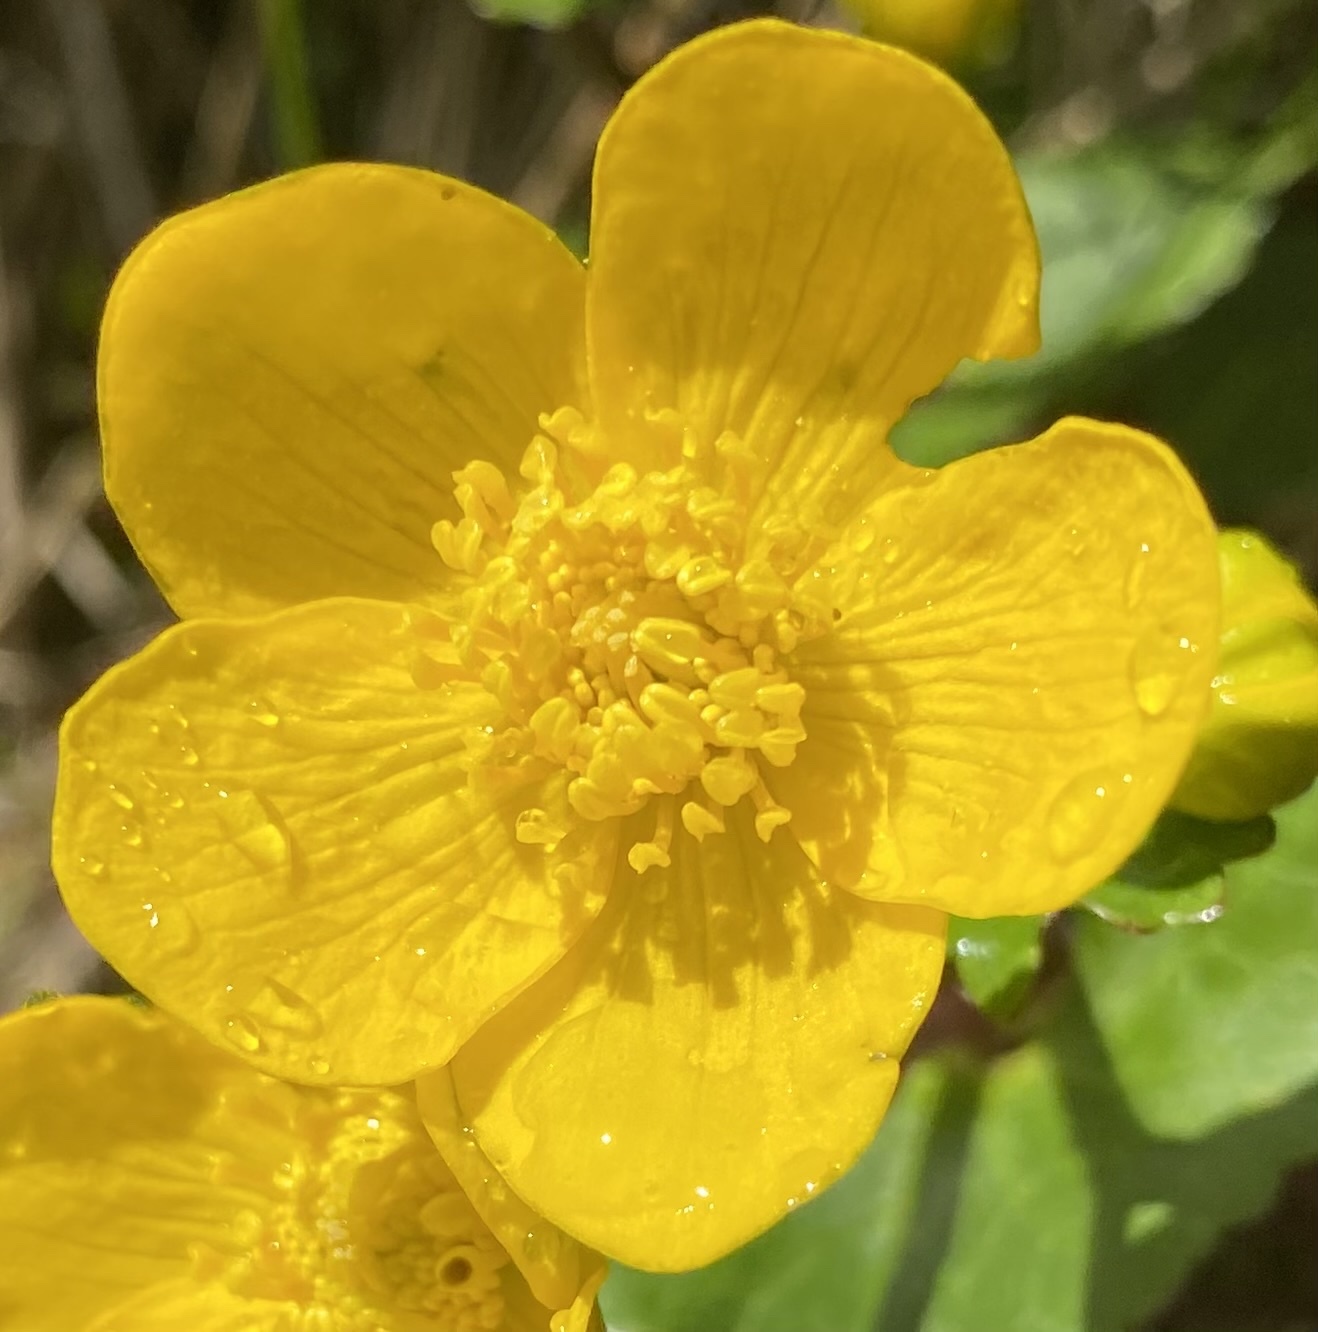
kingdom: Plantae
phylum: Tracheophyta
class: Magnoliopsida
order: Ranunculales
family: Ranunculaceae
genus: Caltha
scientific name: Caltha palustris
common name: Marsh marigold
